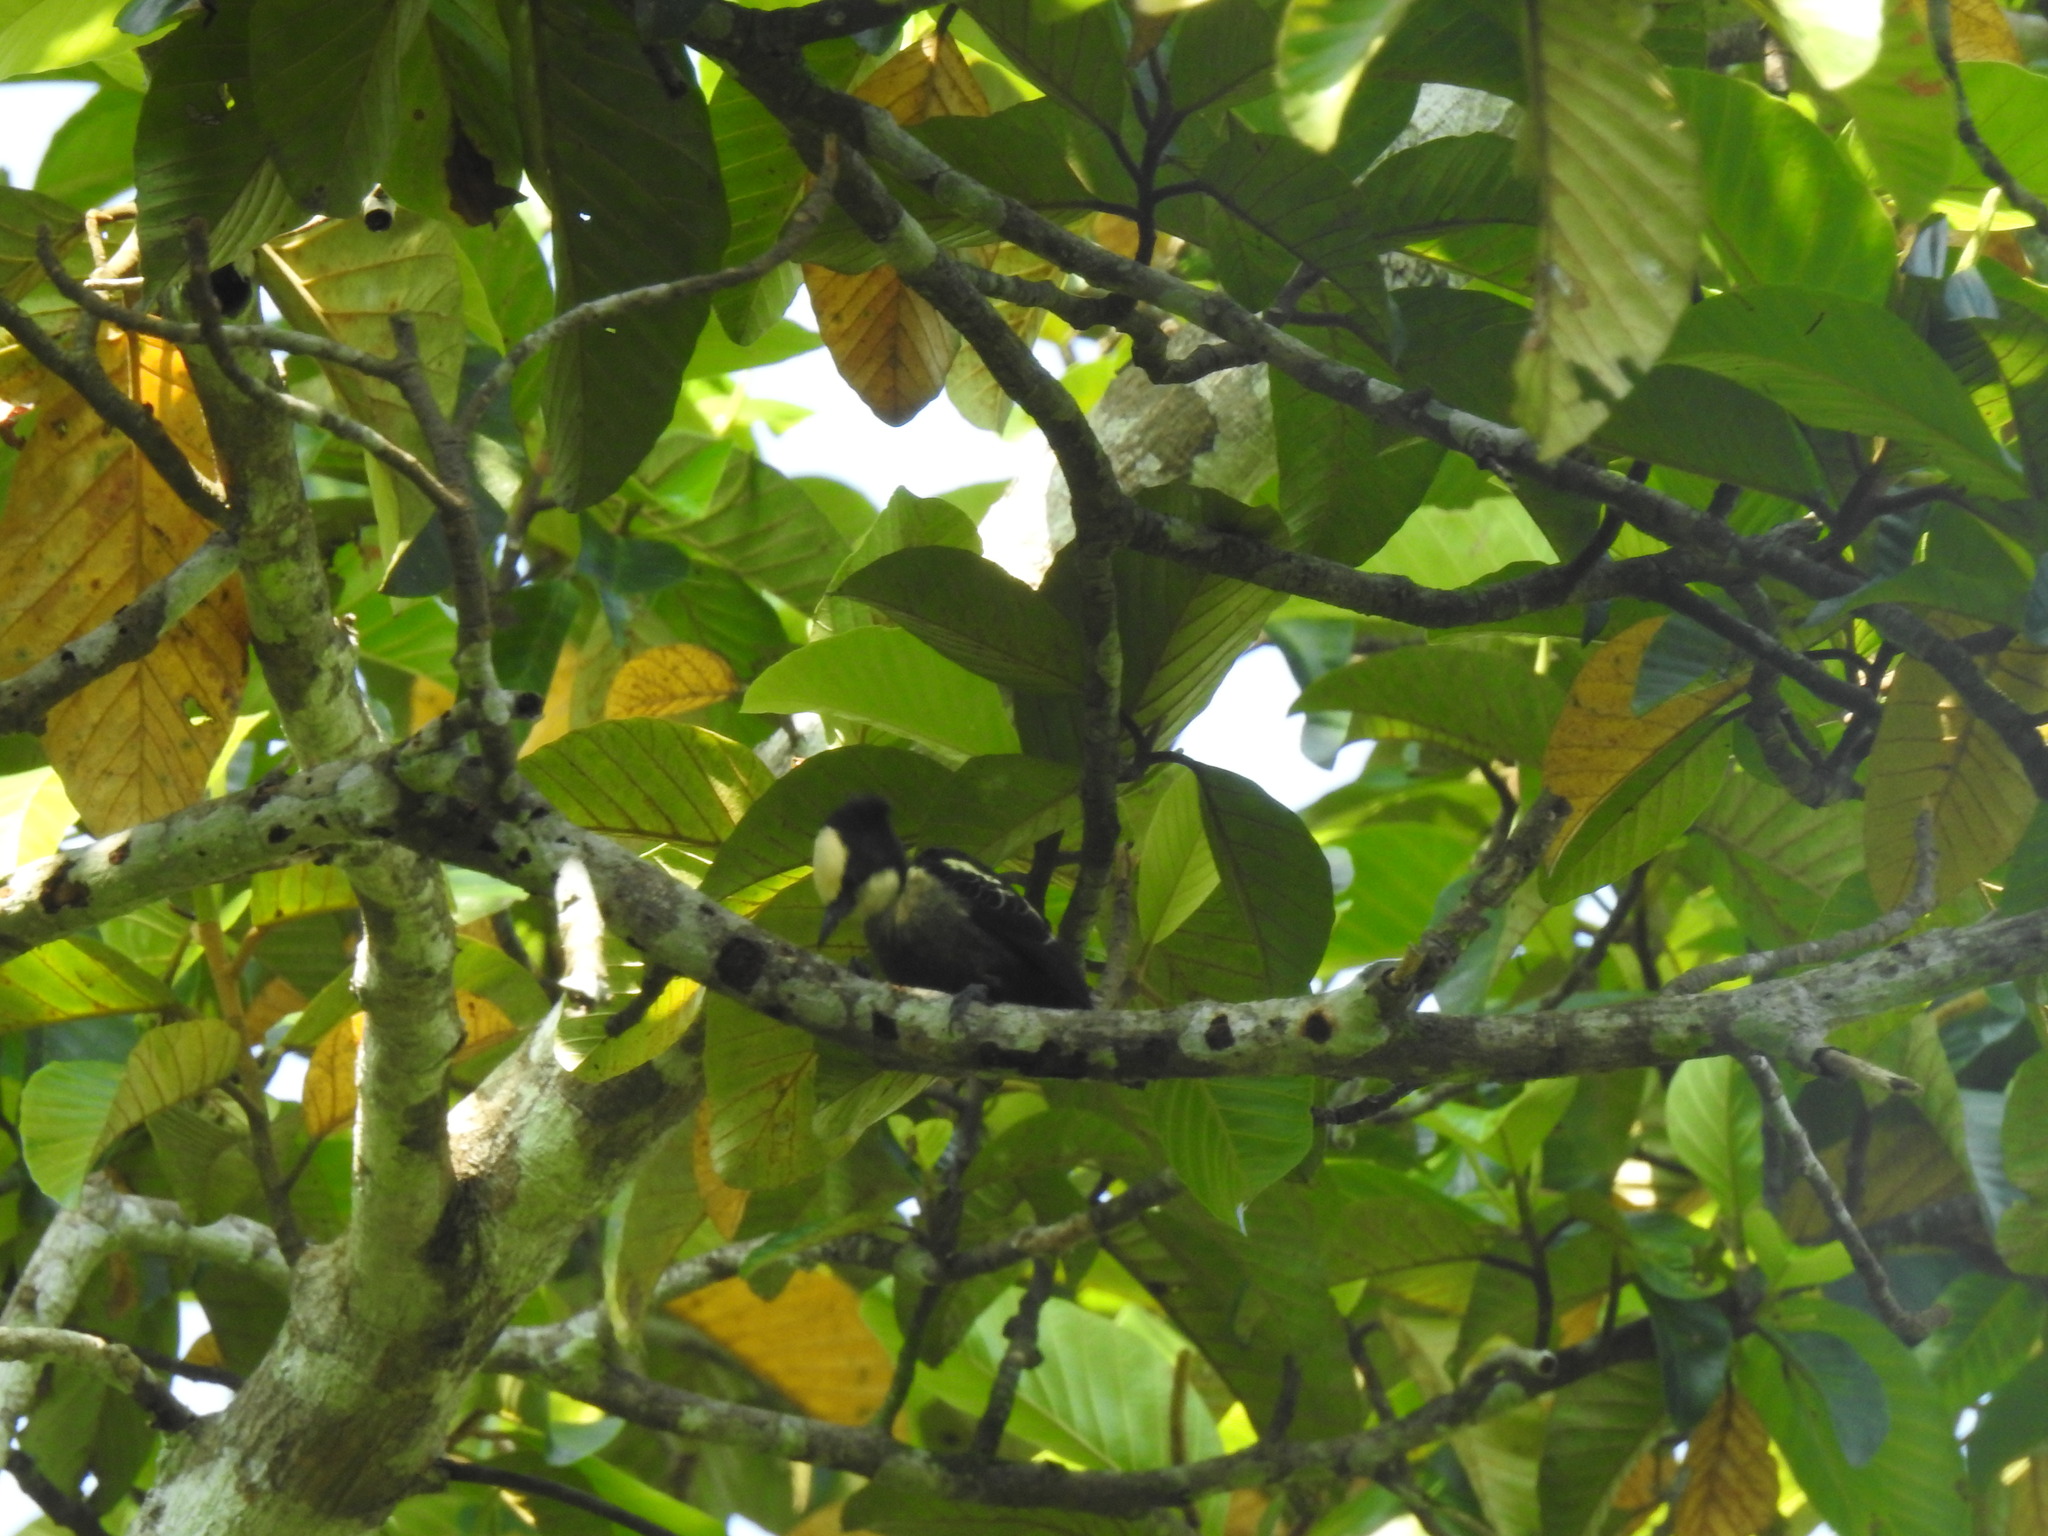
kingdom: Animalia
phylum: Chordata
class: Aves
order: Piciformes
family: Picidae
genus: Hemicircus
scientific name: Hemicircus canente
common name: Heart-spotted woodpecker
